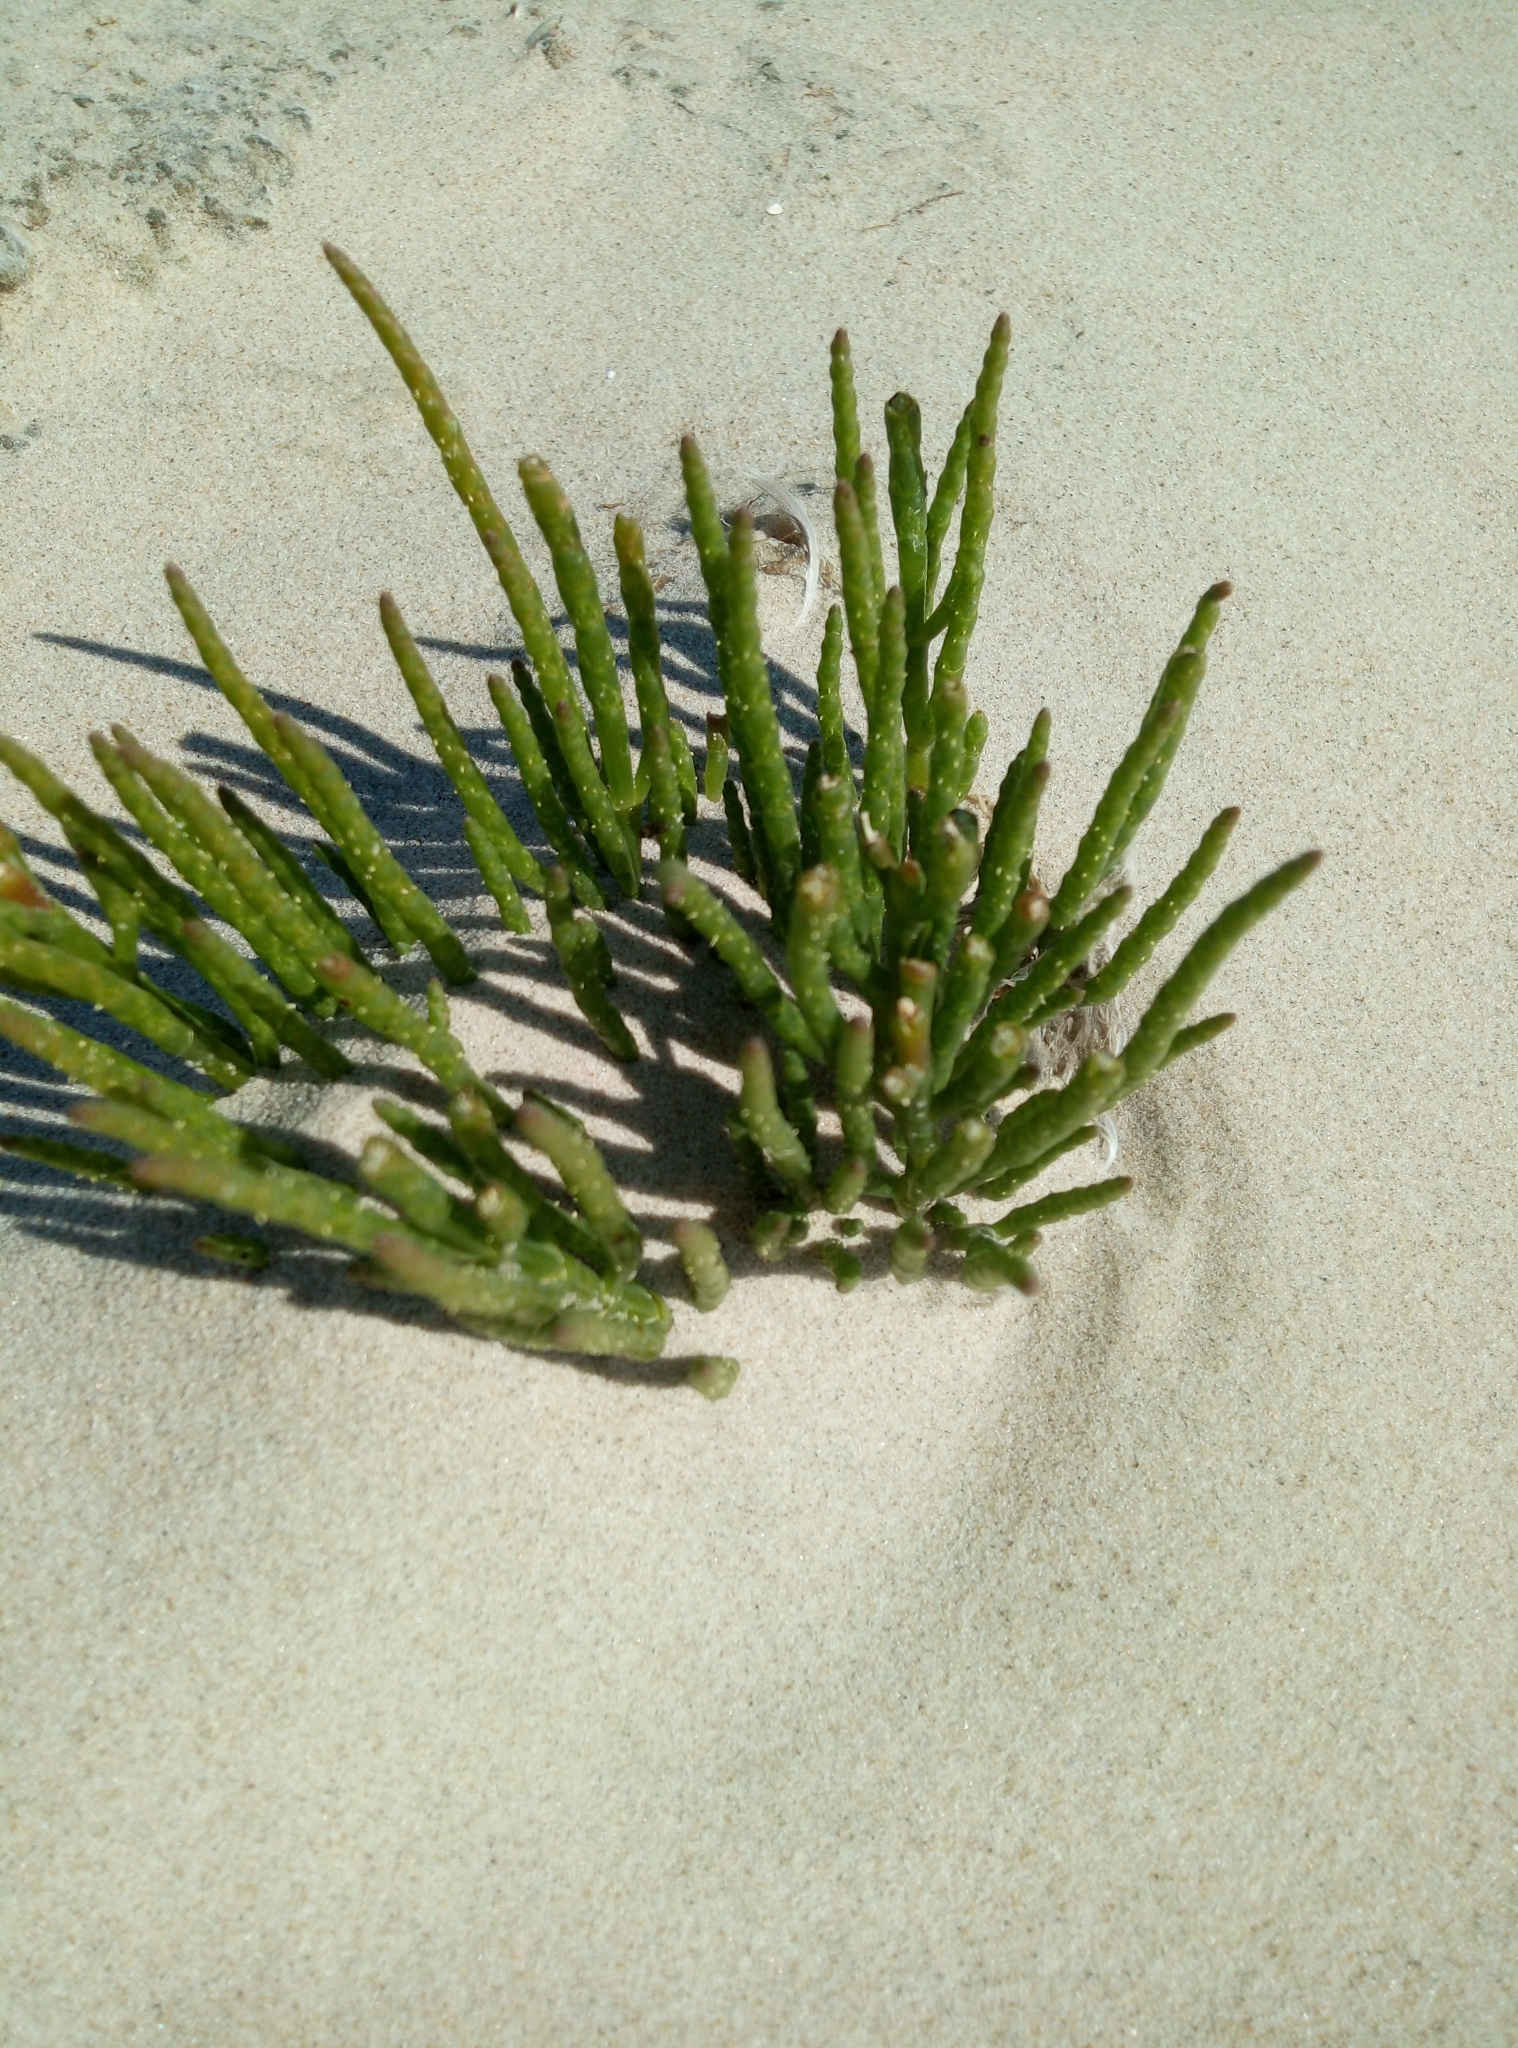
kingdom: Plantae
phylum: Tracheophyta
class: Magnoliopsida
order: Caryophyllales
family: Amaranthaceae
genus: Salicornia
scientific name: Salicornia europaea
